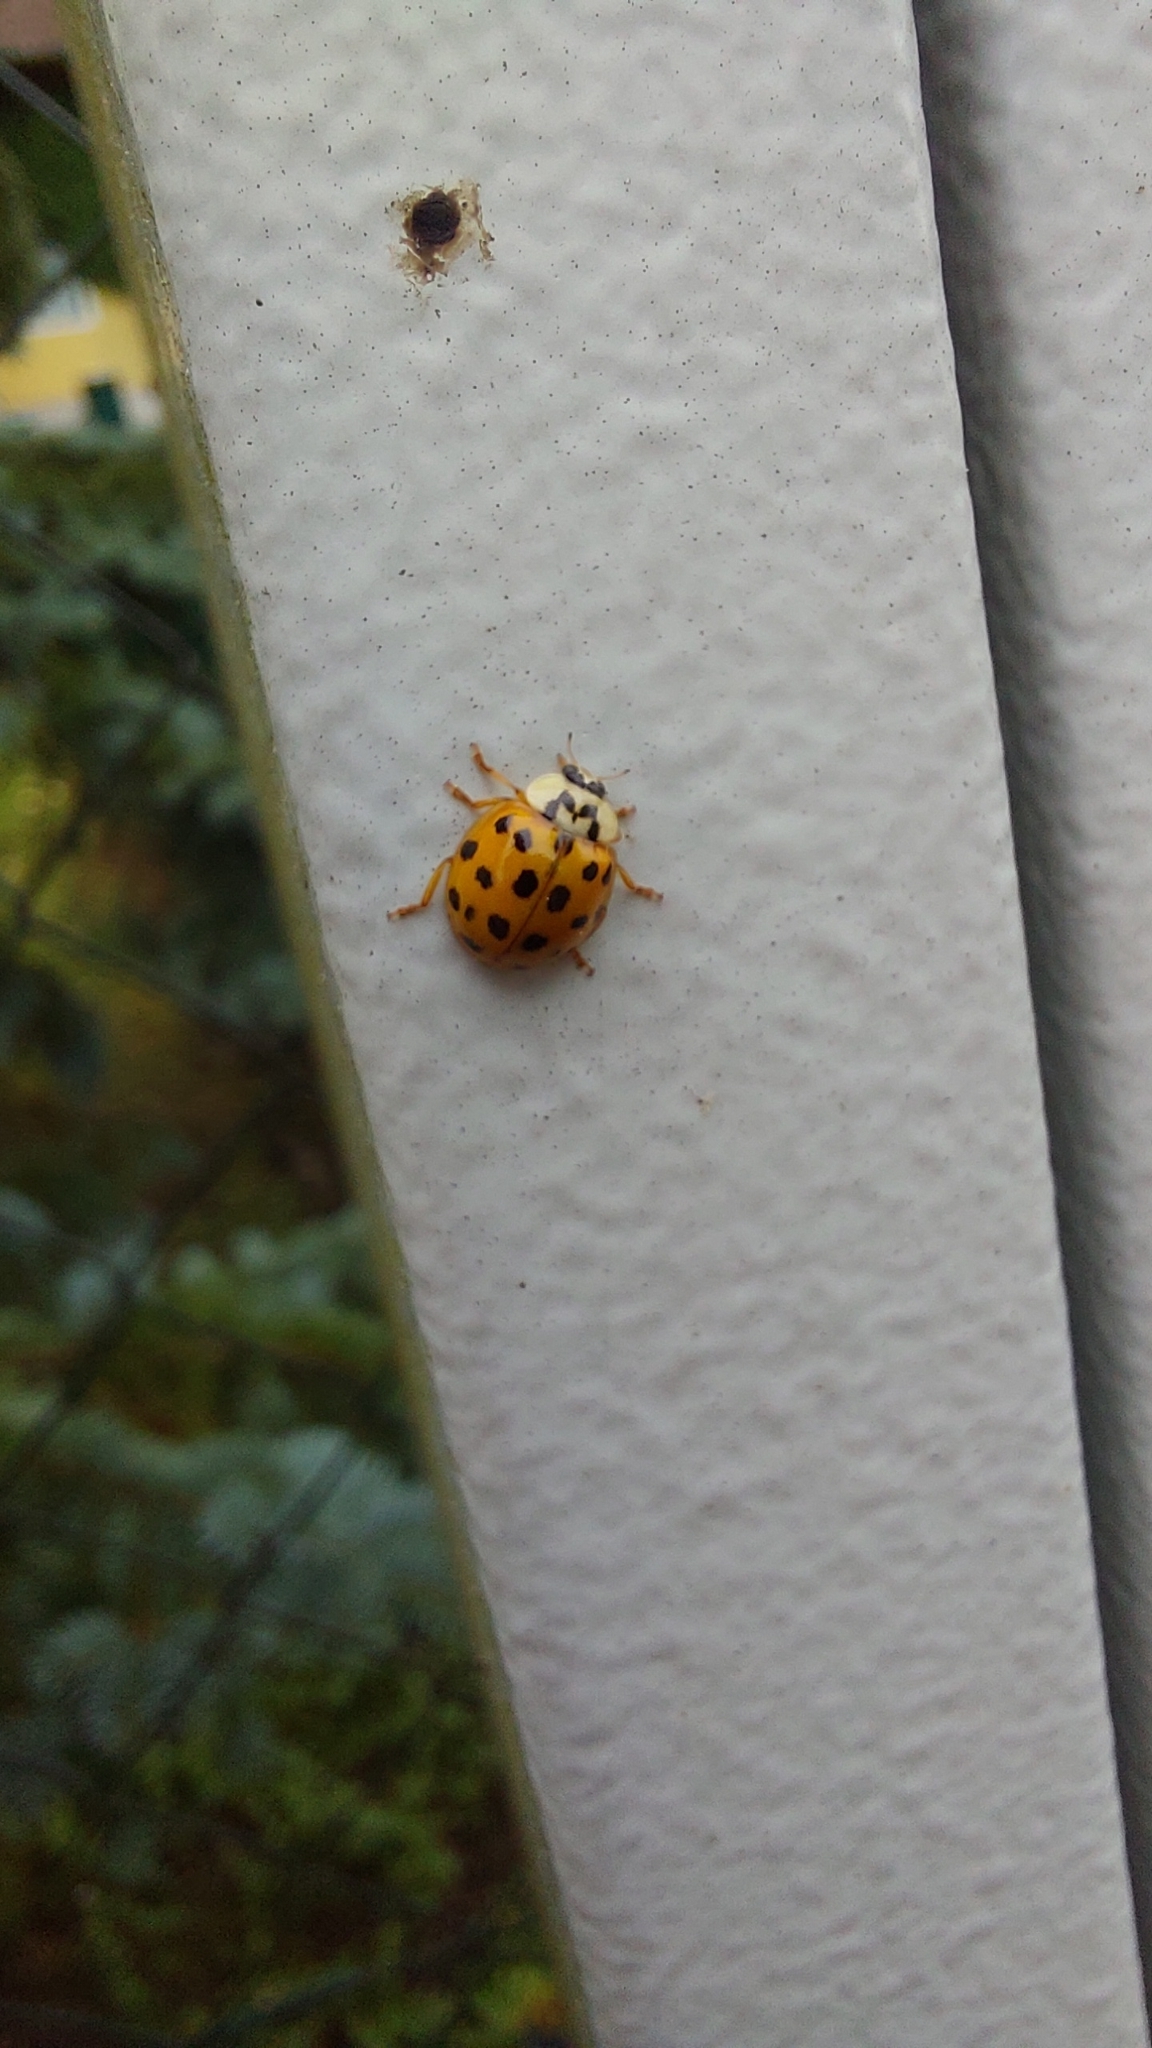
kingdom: Animalia
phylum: Arthropoda
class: Insecta
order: Coleoptera
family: Coccinellidae
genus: Harmonia
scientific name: Harmonia axyridis
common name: Harlequin ladybird
